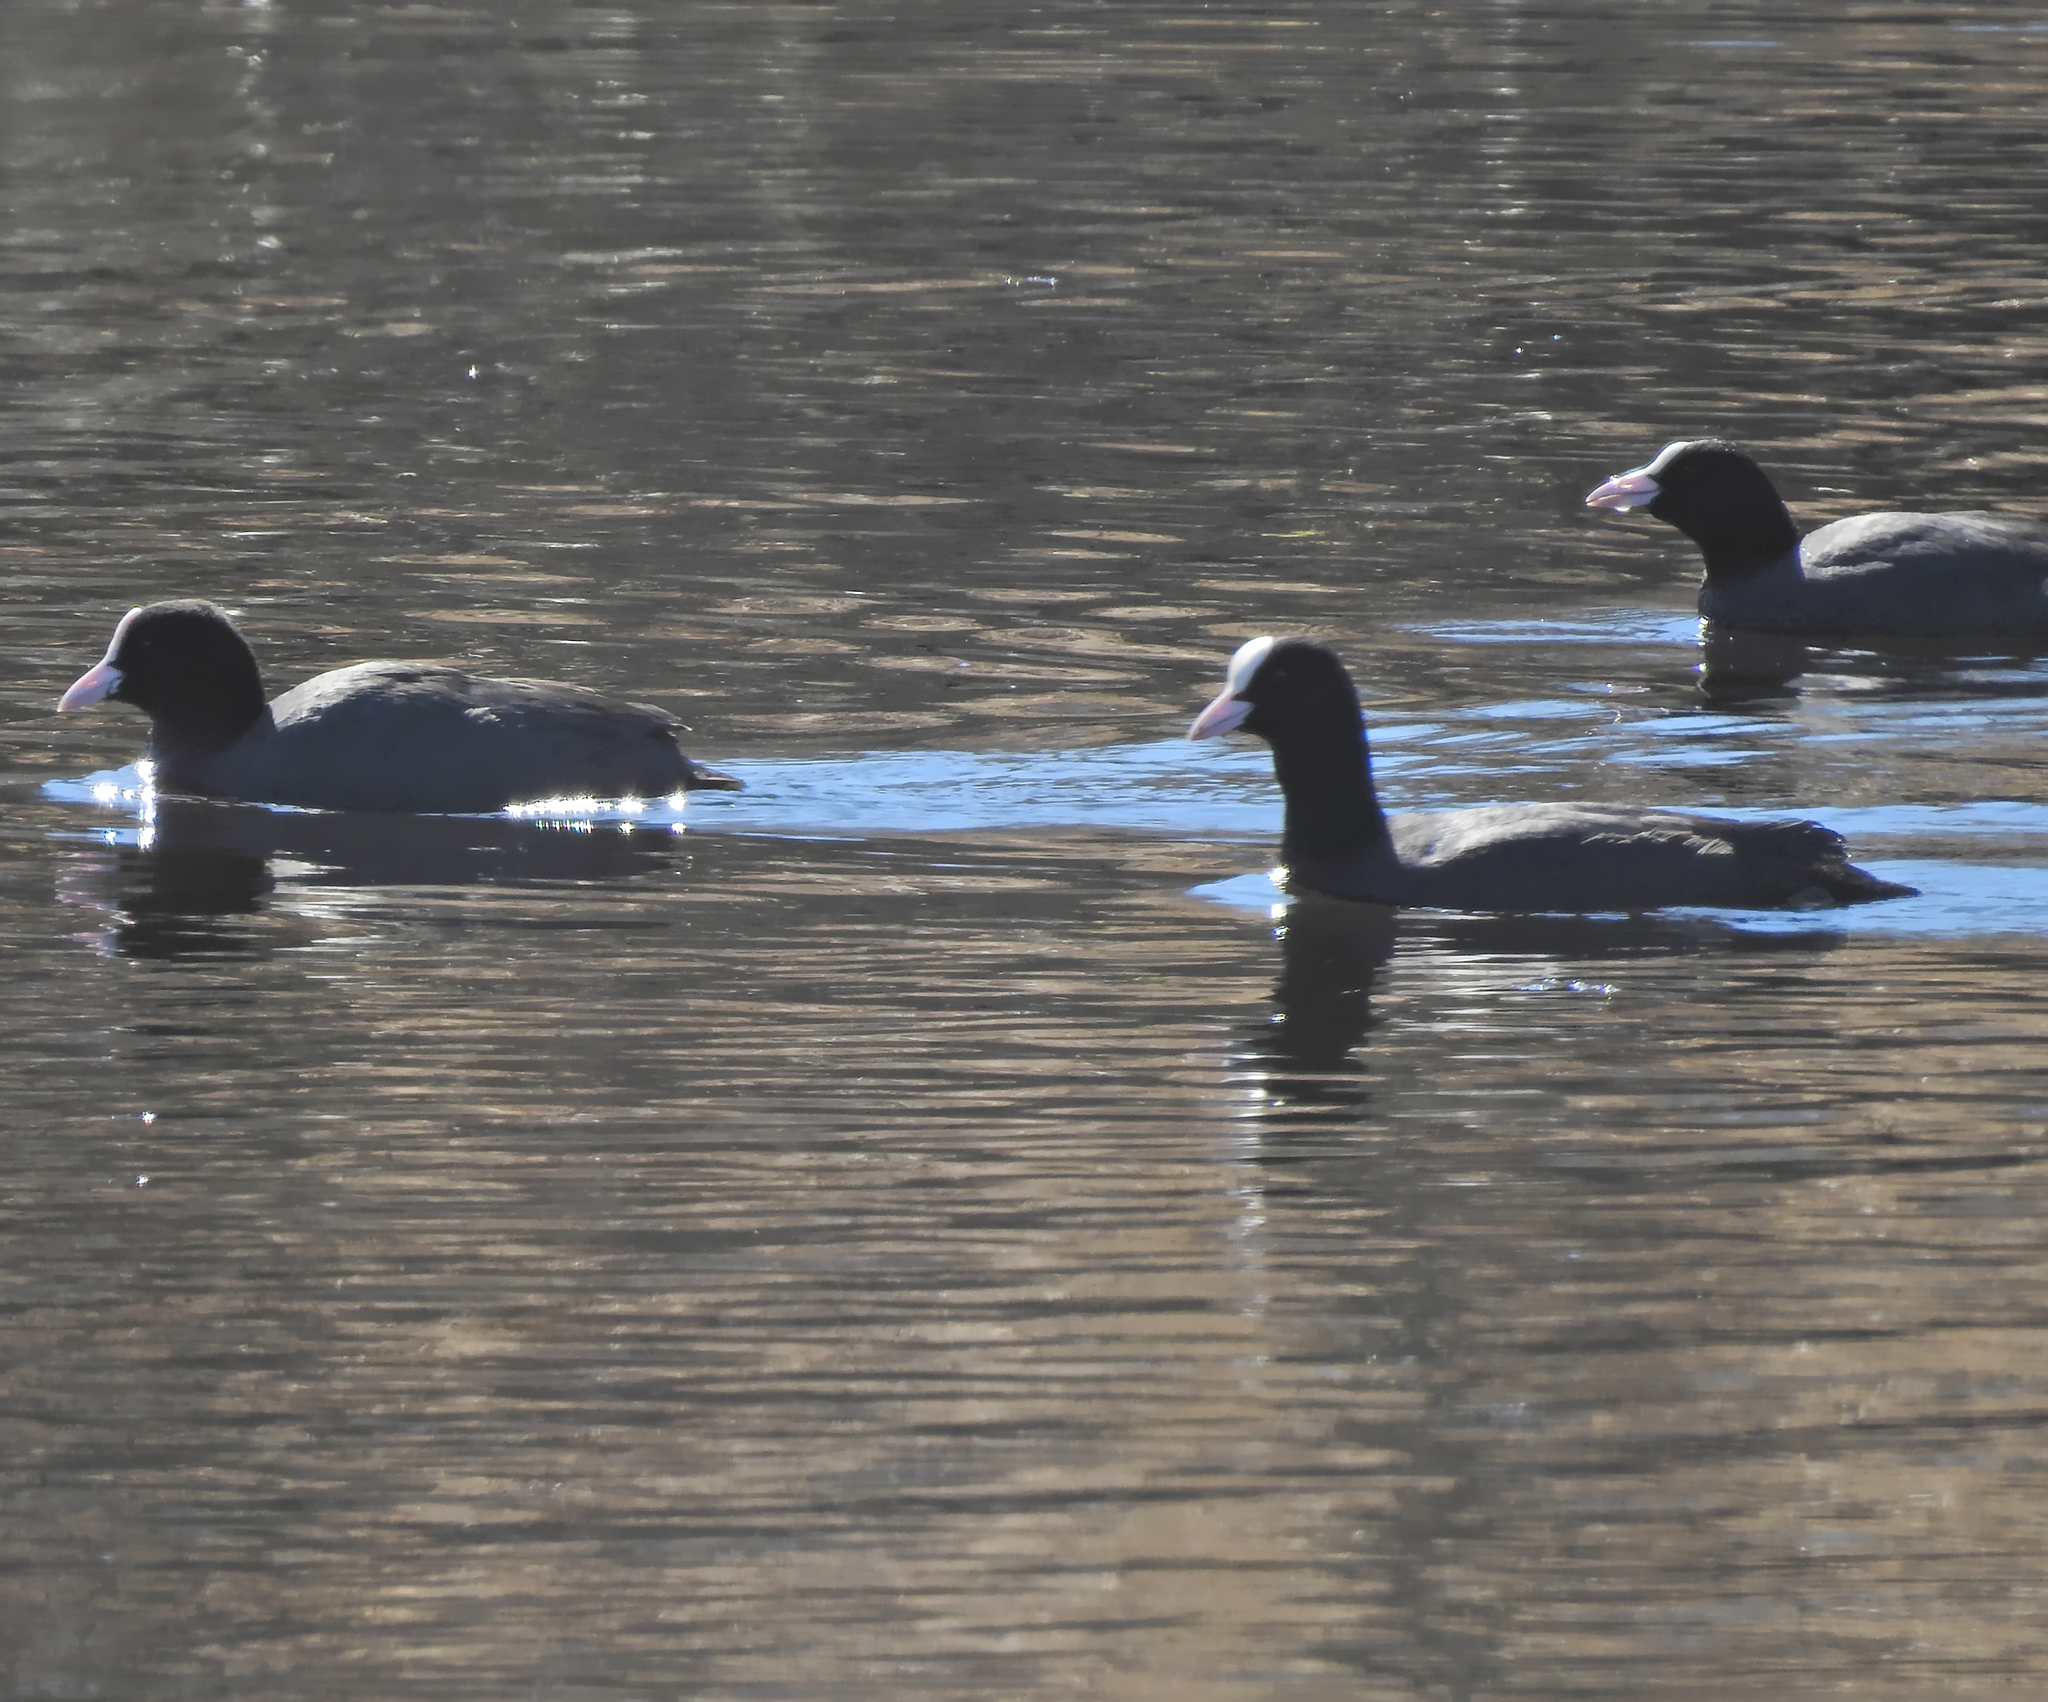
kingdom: Animalia
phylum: Chordata
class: Aves
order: Gruiformes
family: Rallidae
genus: Fulica
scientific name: Fulica atra
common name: Eurasian coot
